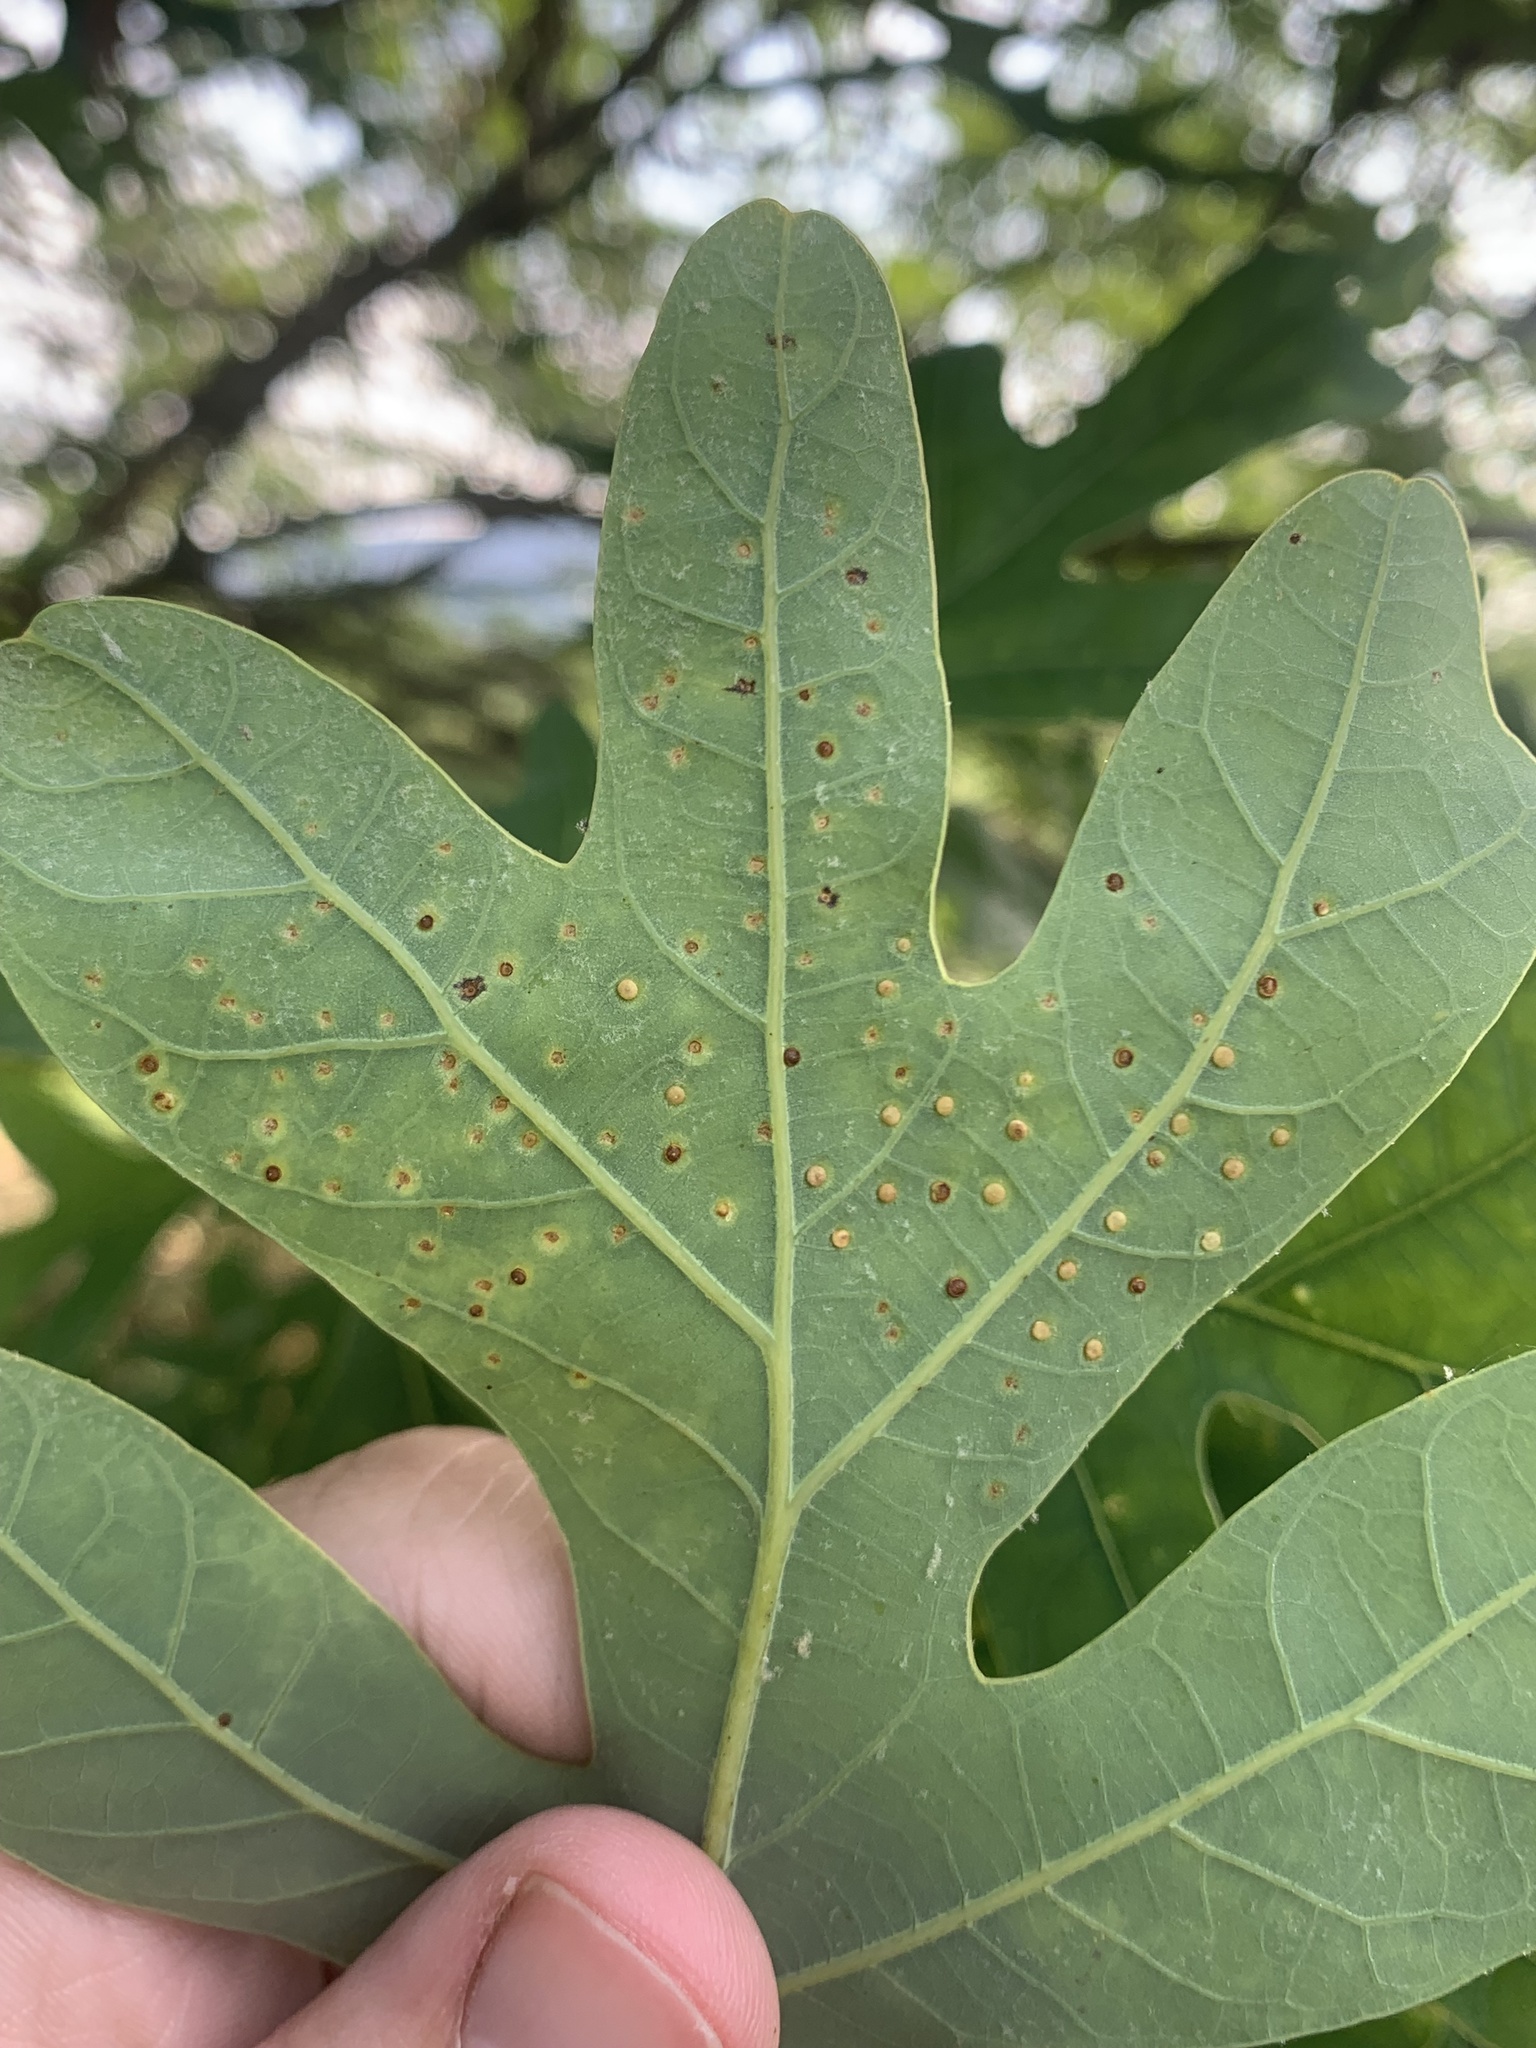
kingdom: Animalia
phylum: Arthropoda
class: Insecta
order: Hymenoptera
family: Cynipidae
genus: Neuroterus
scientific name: Neuroterus
